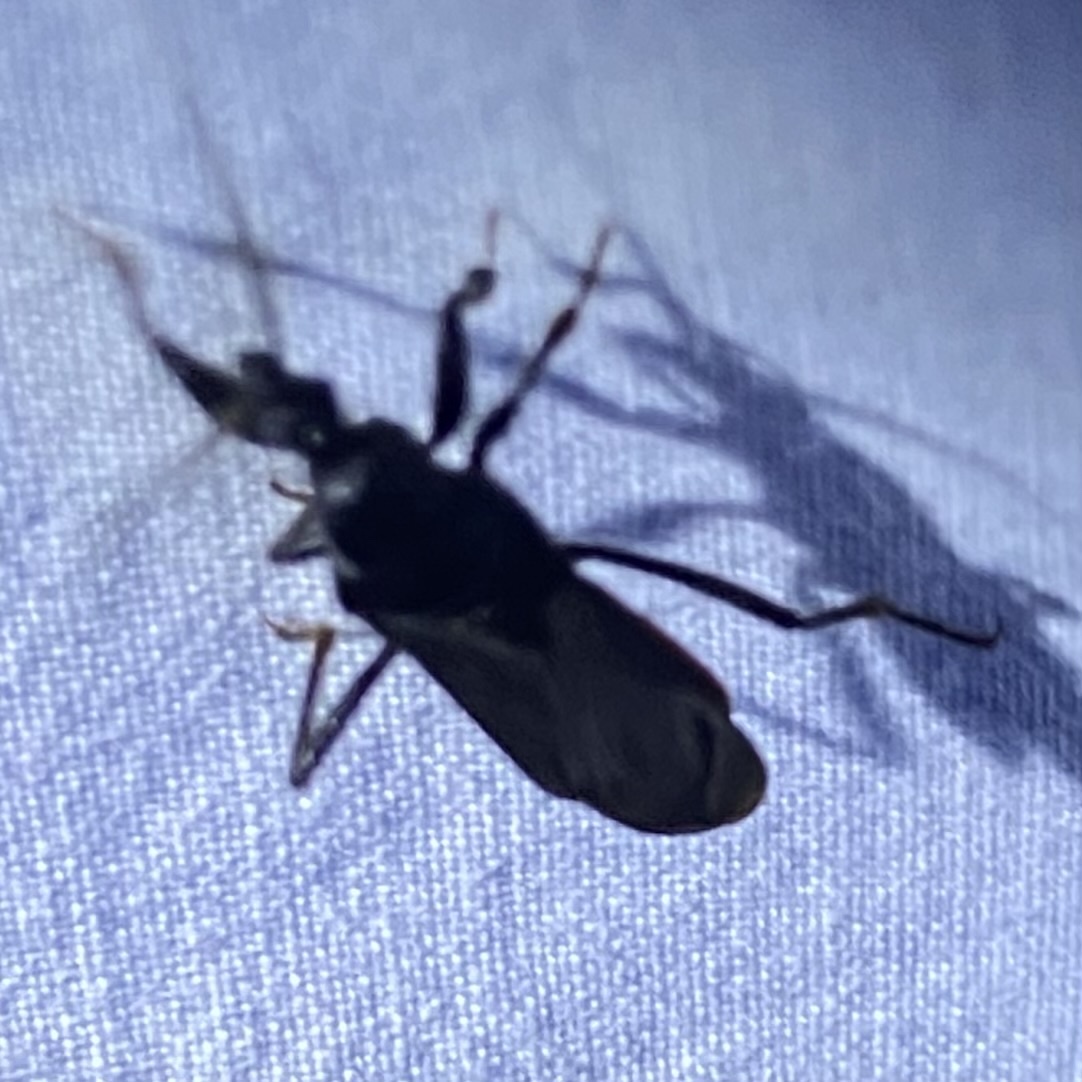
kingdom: Animalia
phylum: Arthropoda
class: Insecta
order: Hemiptera
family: Reduviidae
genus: Melanolestes
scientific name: Melanolestes picipes
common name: Assassin bug
